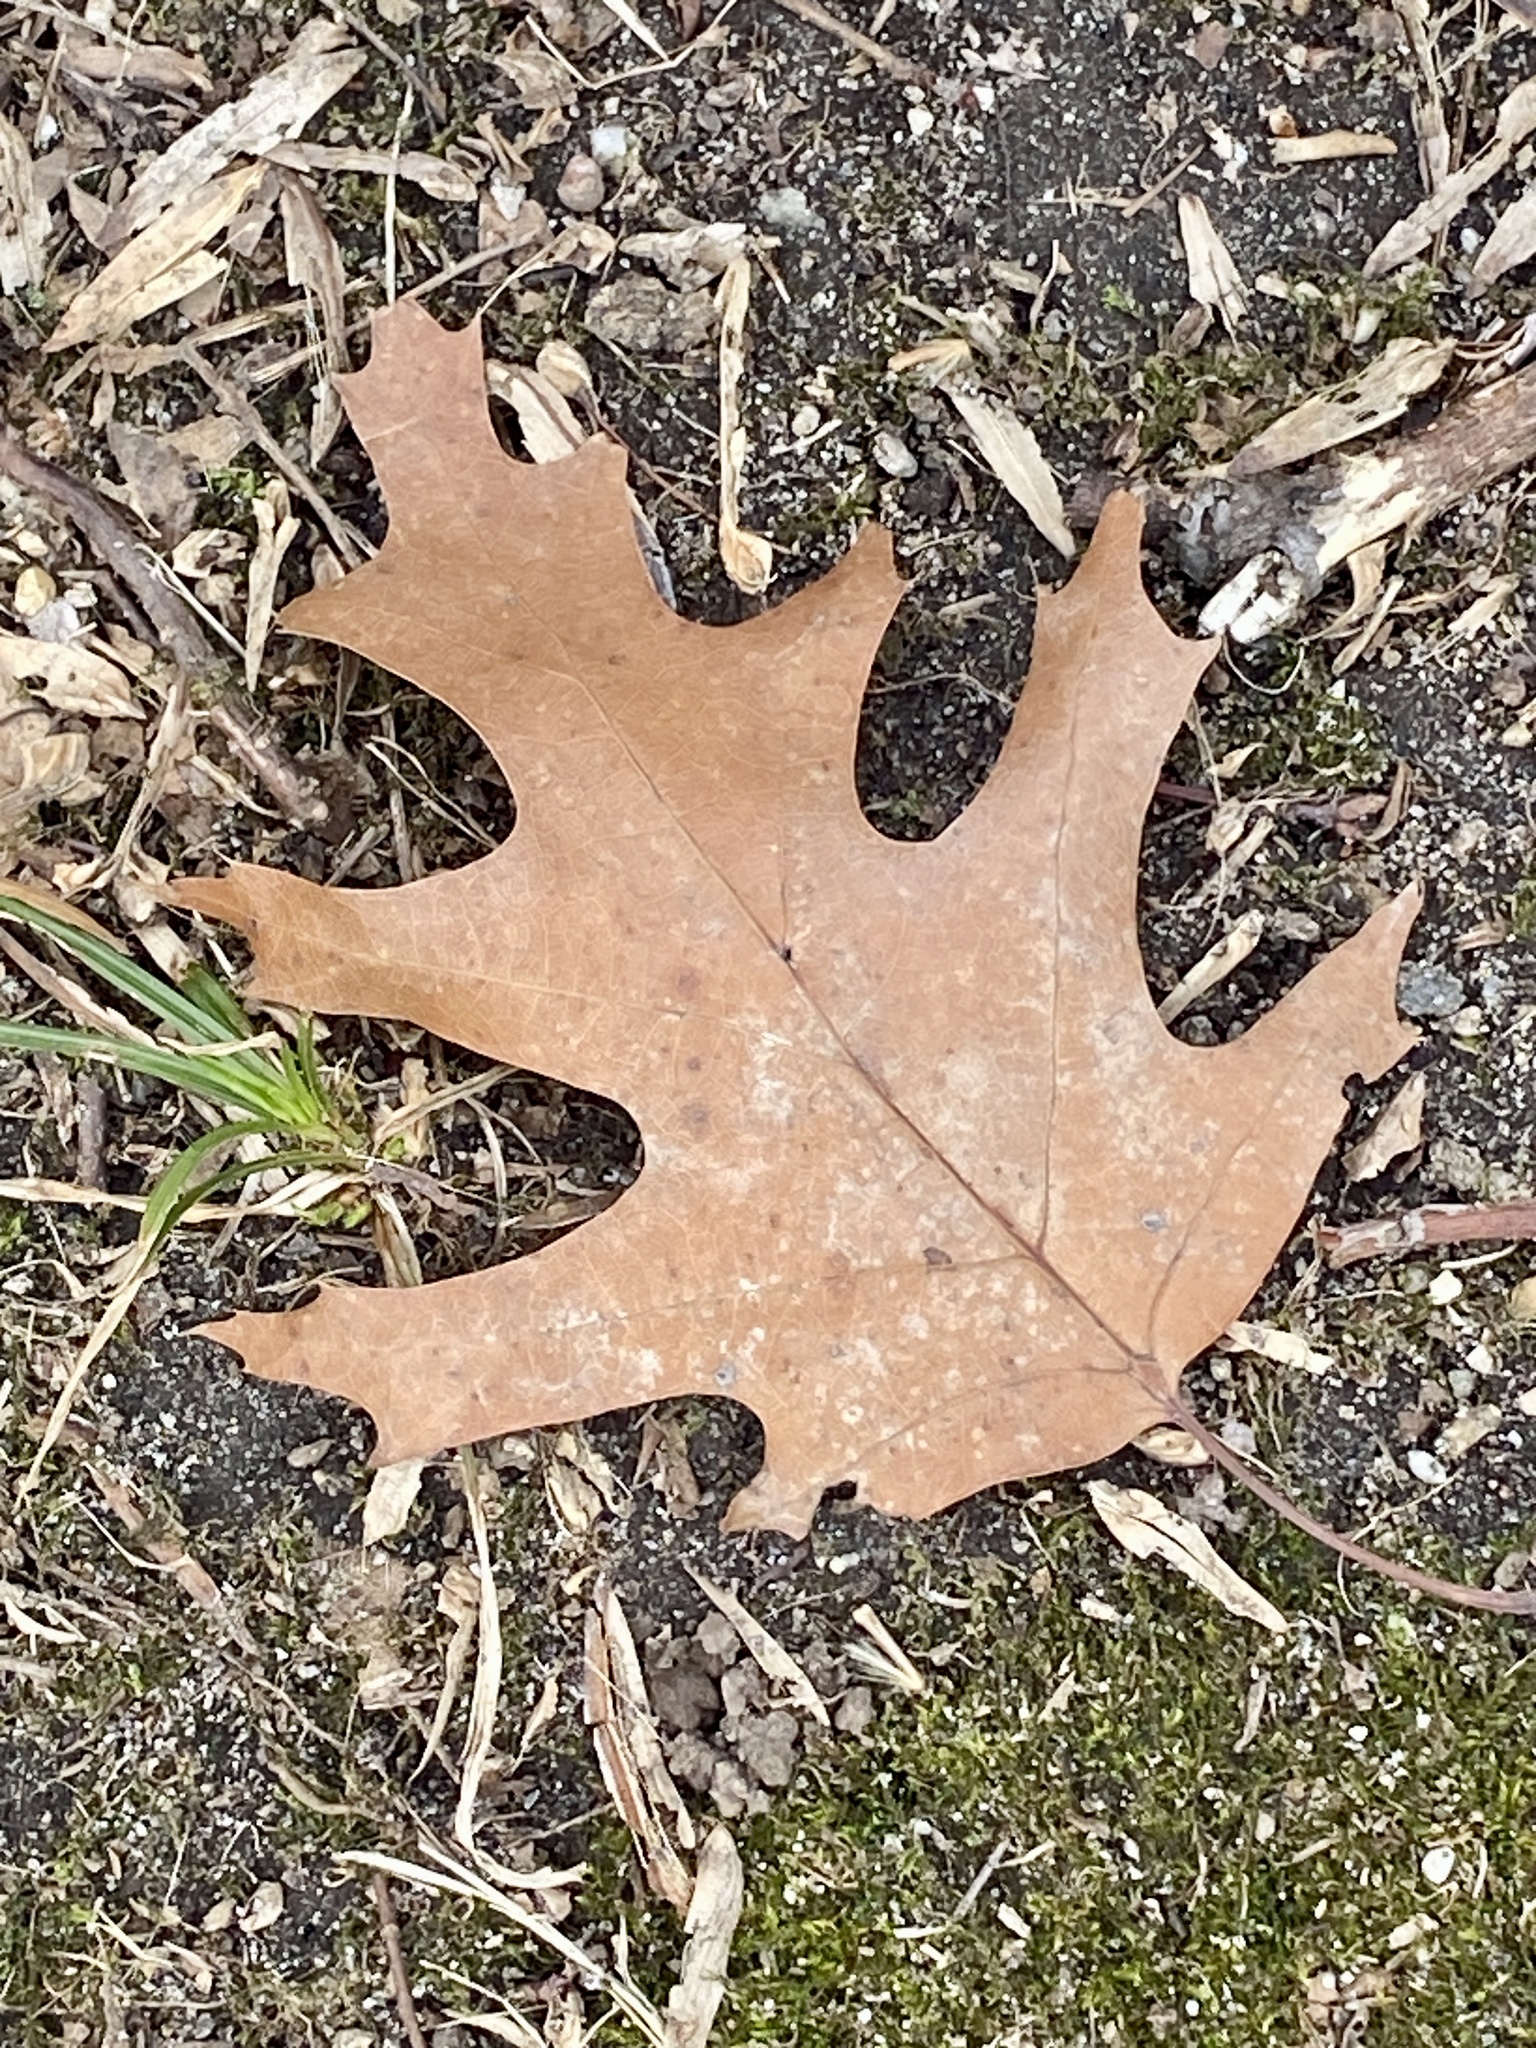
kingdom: Plantae
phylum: Tracheophyta
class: Magnoliopsida
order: Fagales
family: Fagaceae
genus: Quercus
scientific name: Quercus rubra
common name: Red oak
